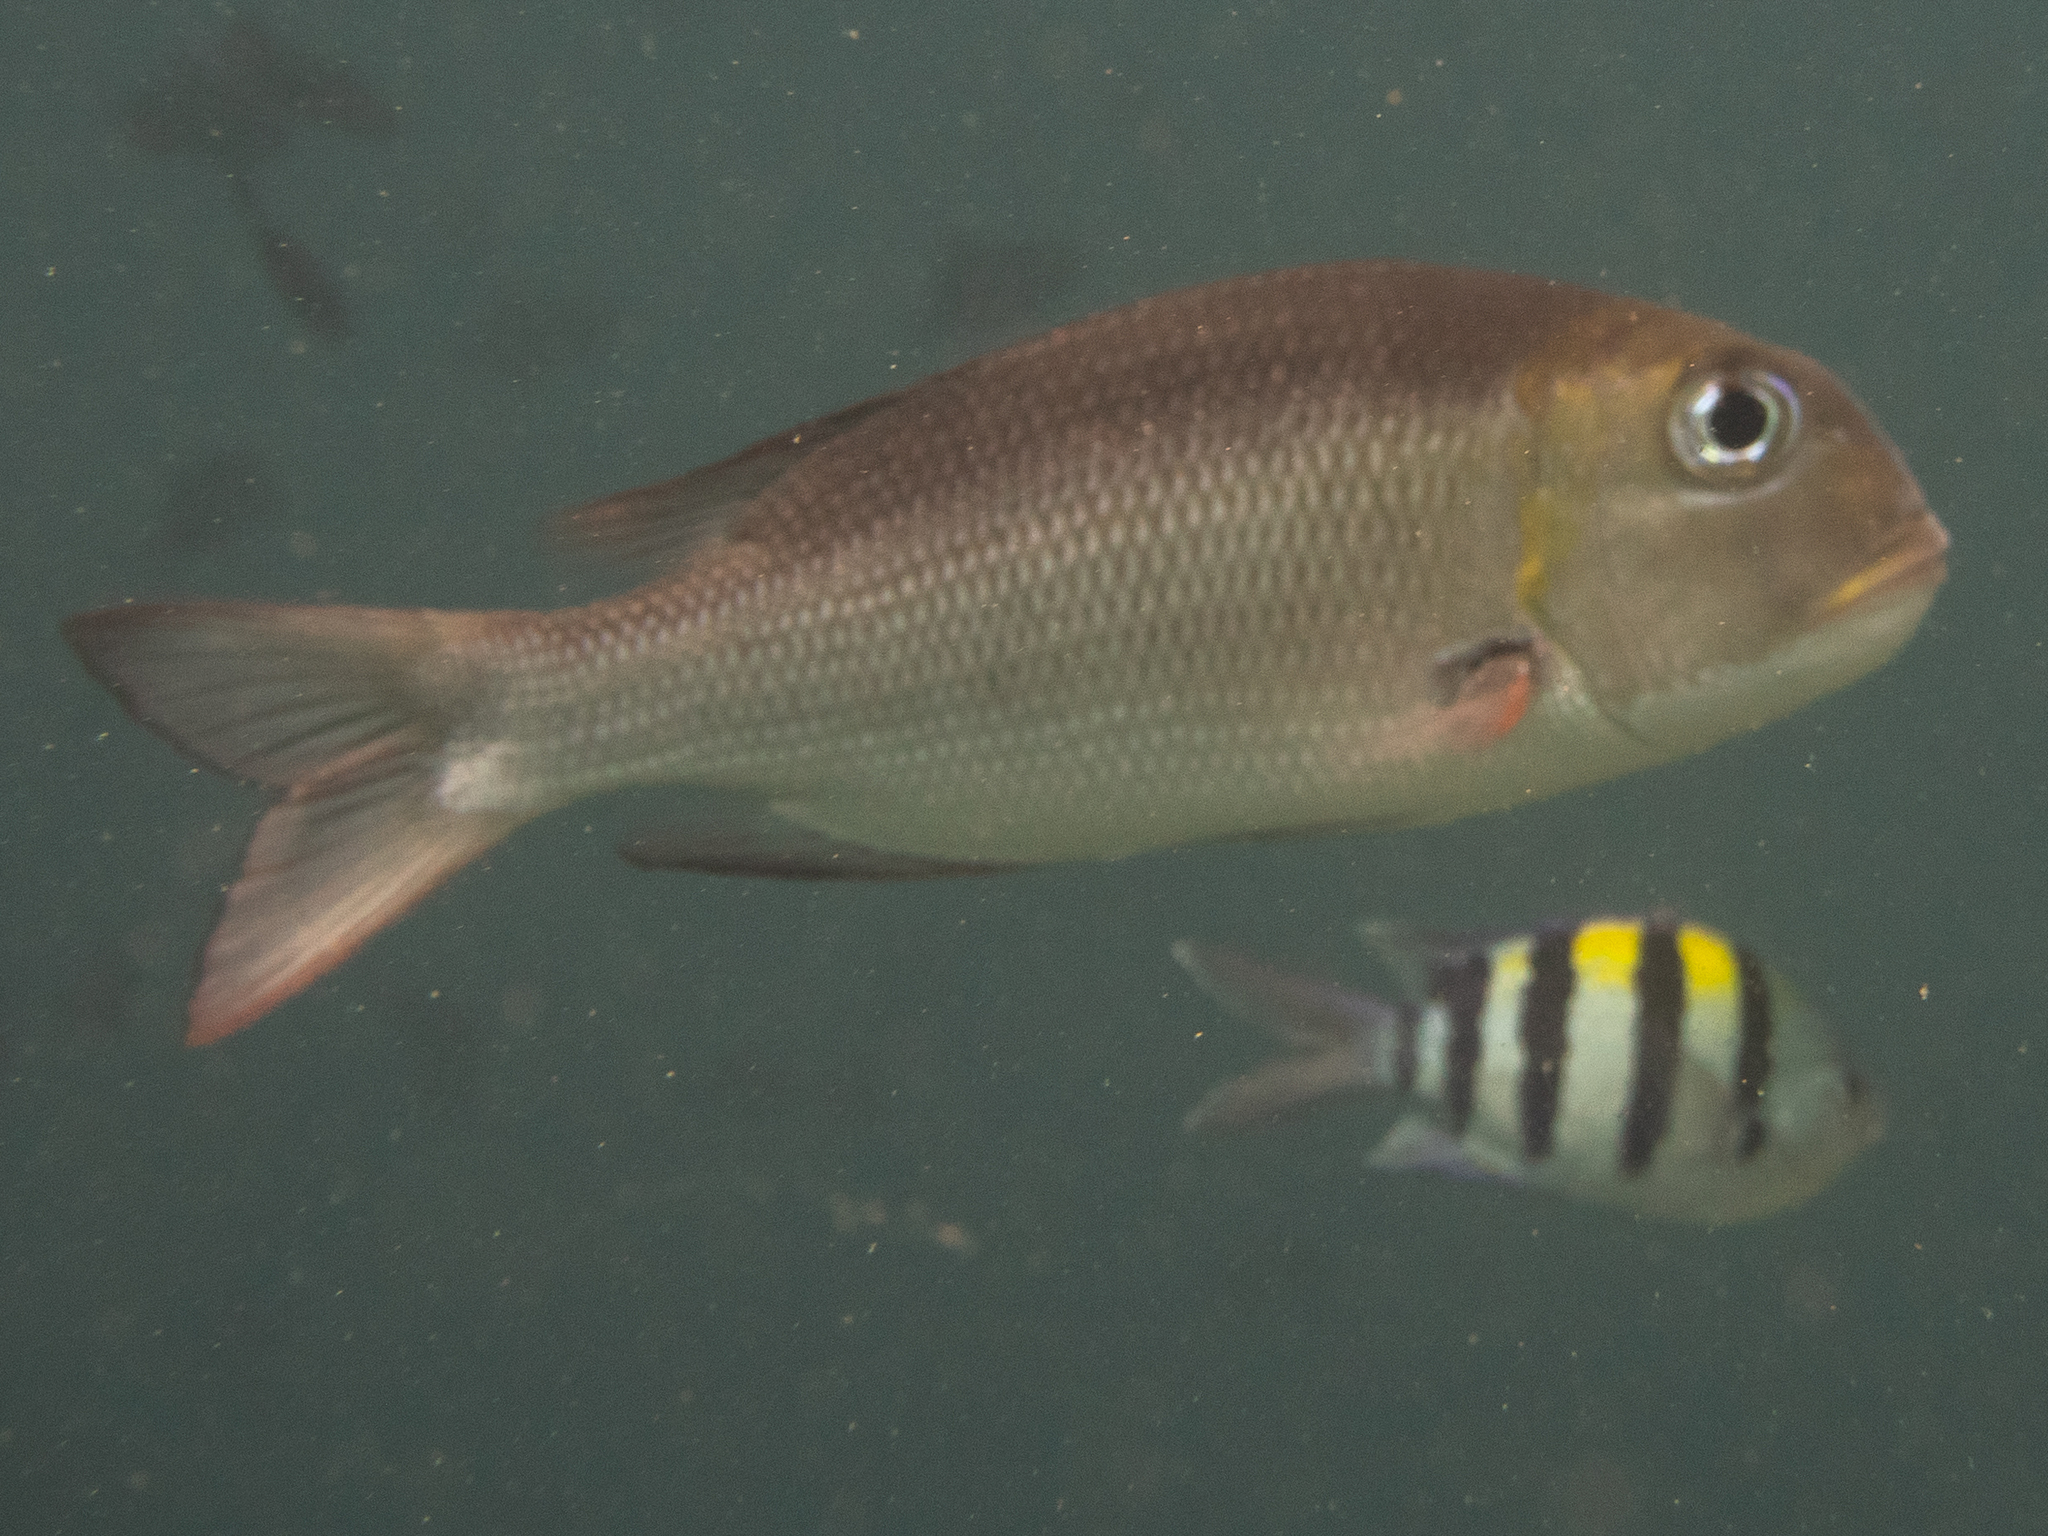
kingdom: Animalia
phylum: Chordata
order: Perciformes
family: Lethrinidae
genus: Monotaxis
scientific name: Monotaxis grandoculis
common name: Bigeye emperor
